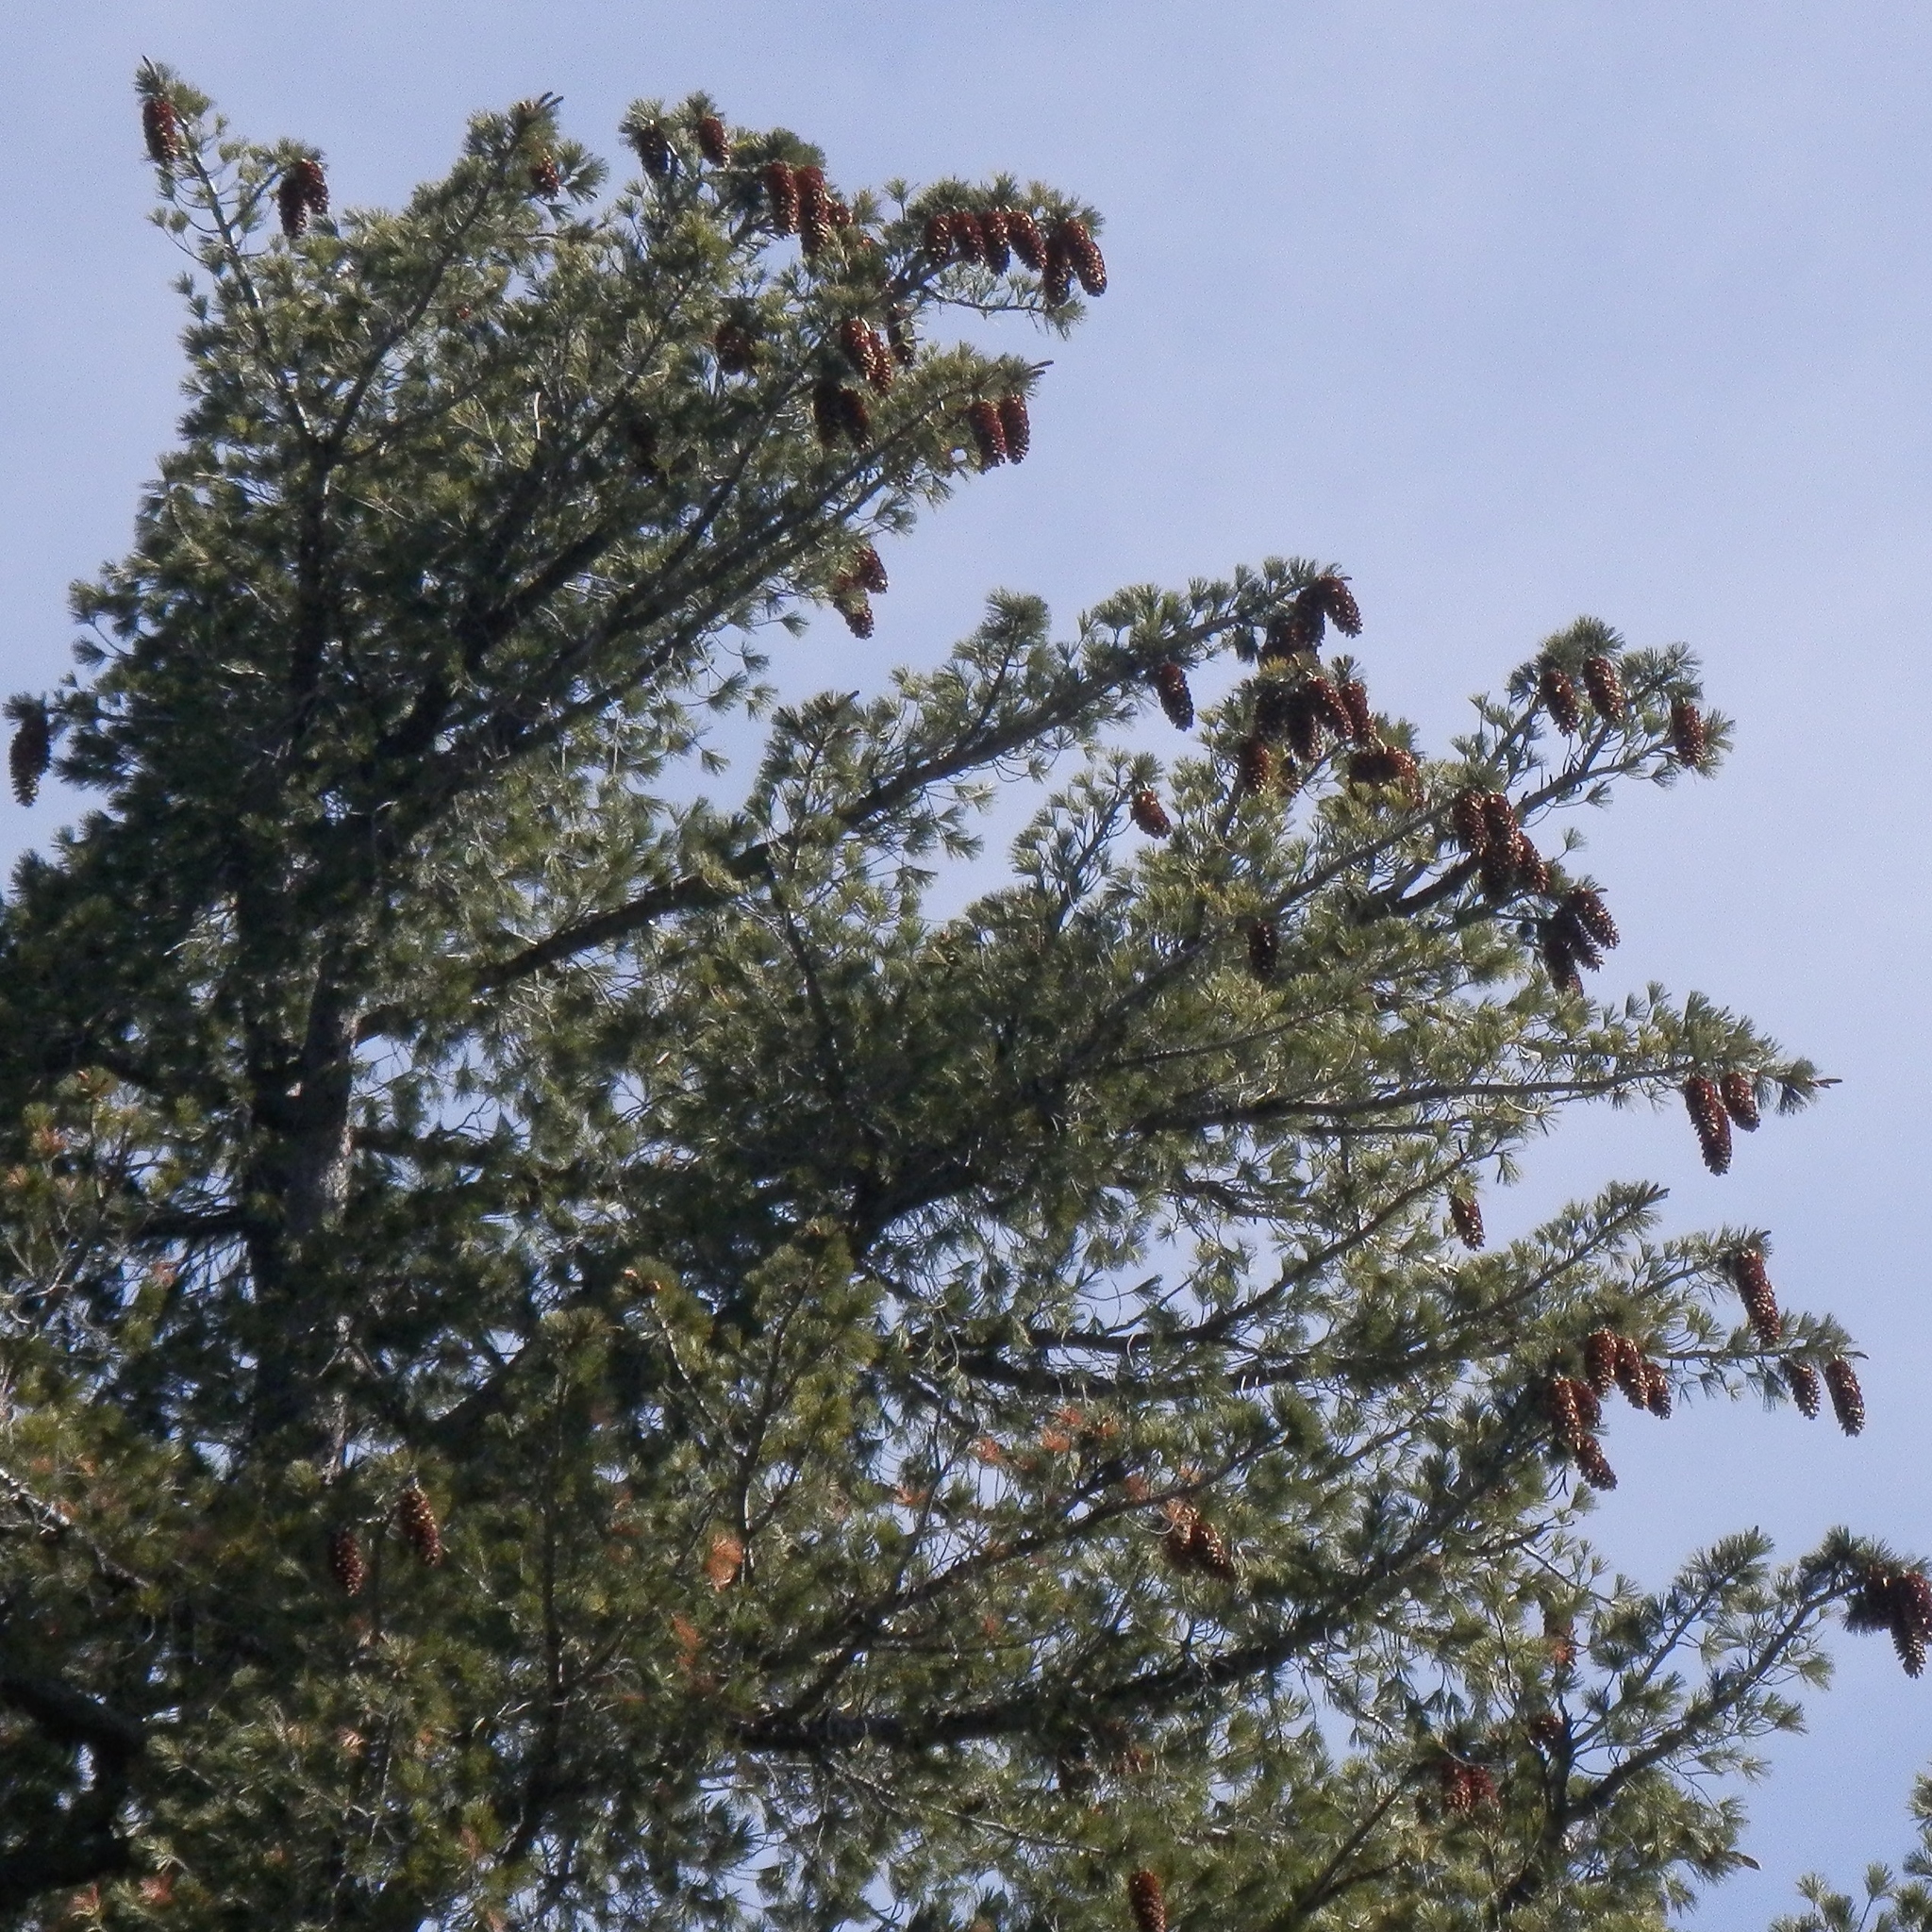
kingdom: Plantae
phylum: Tracheophyta
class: Pinopsida
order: Pinales
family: Pinaceae
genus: Pinus
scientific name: Pinus lambertiana
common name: Sugar pine
